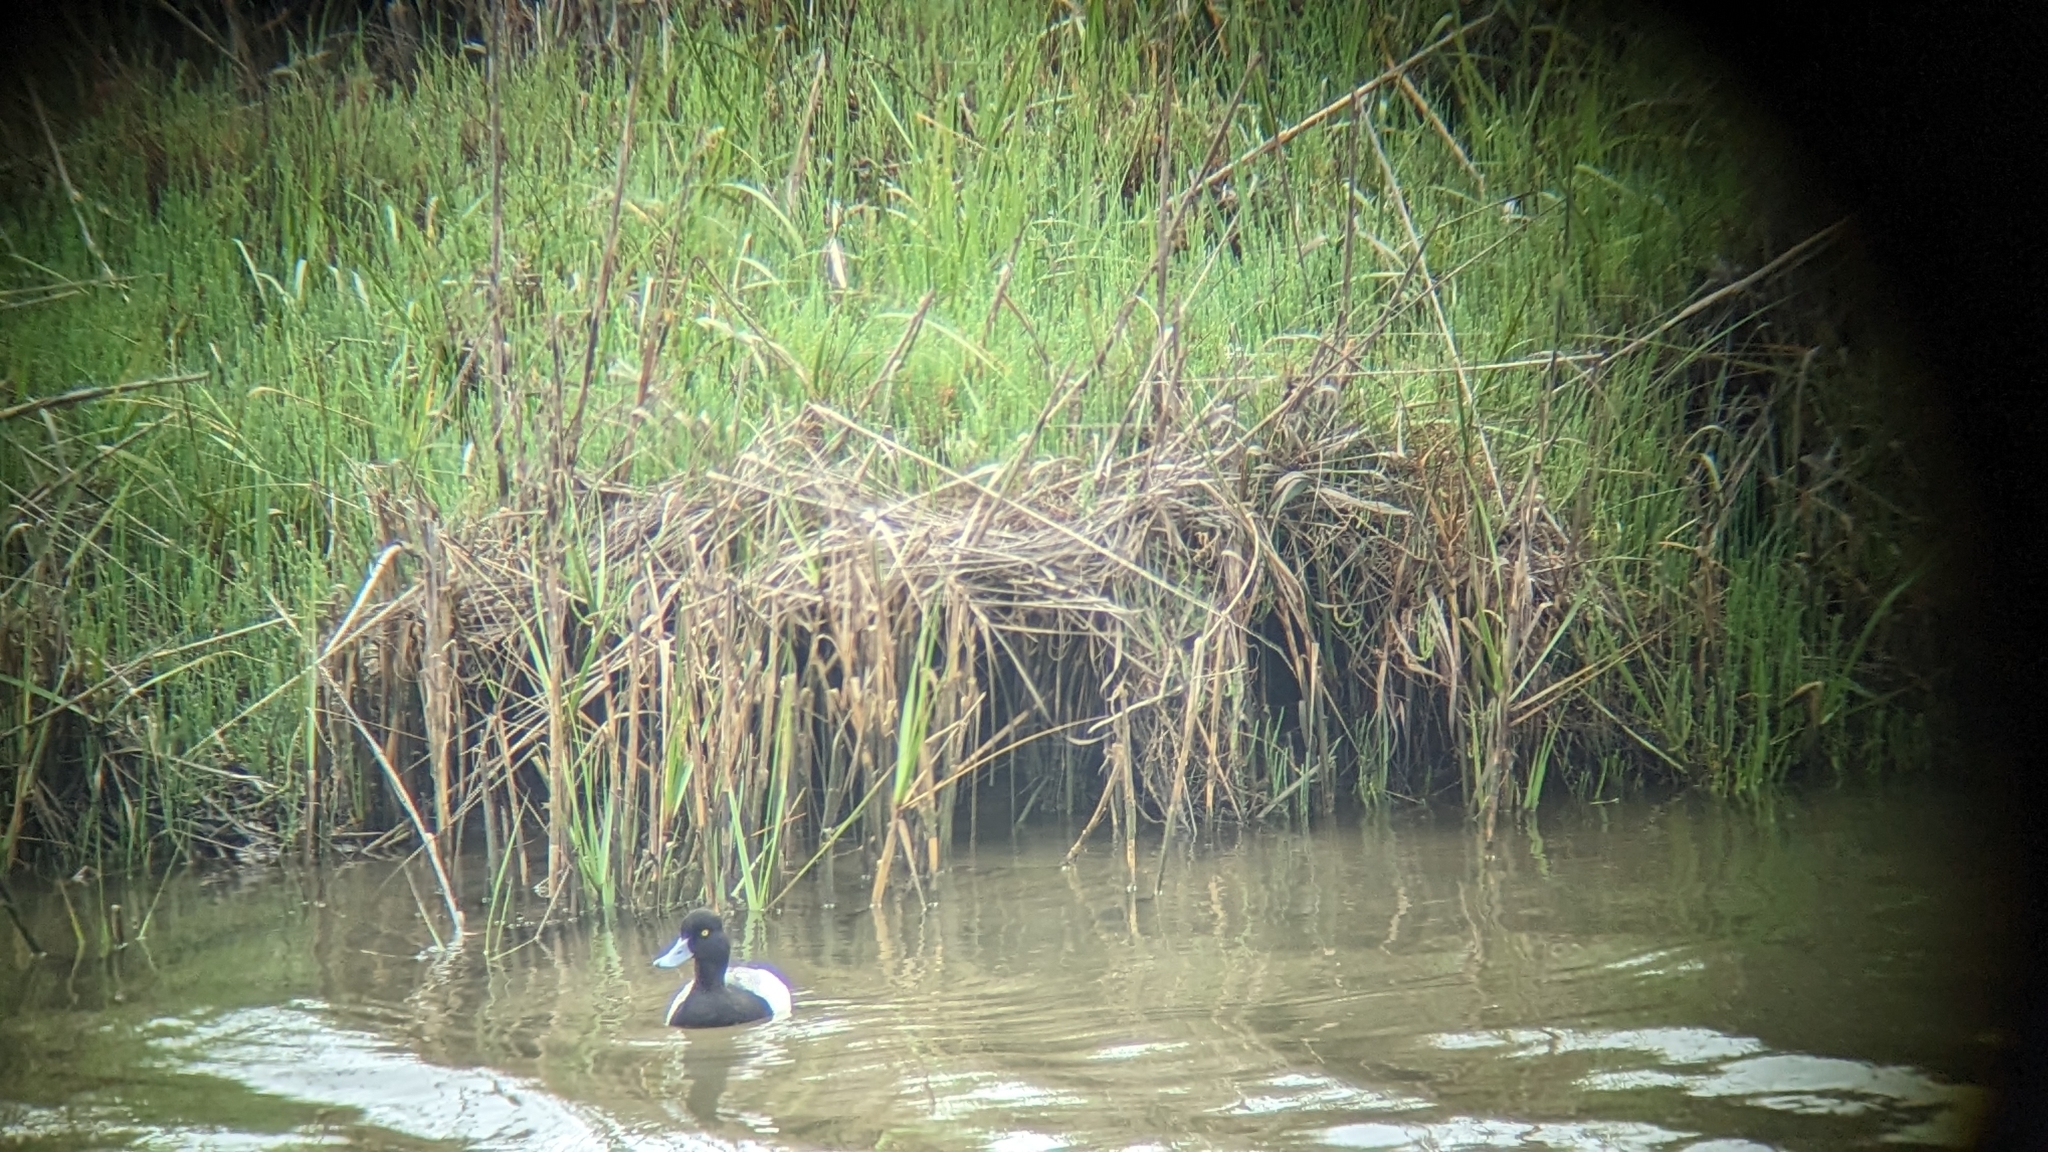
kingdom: Animalia
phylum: Chordata
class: Aves
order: Anseriformes
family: Anatidae
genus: Aythya
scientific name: Aythya affinis
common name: Lesser scaup
